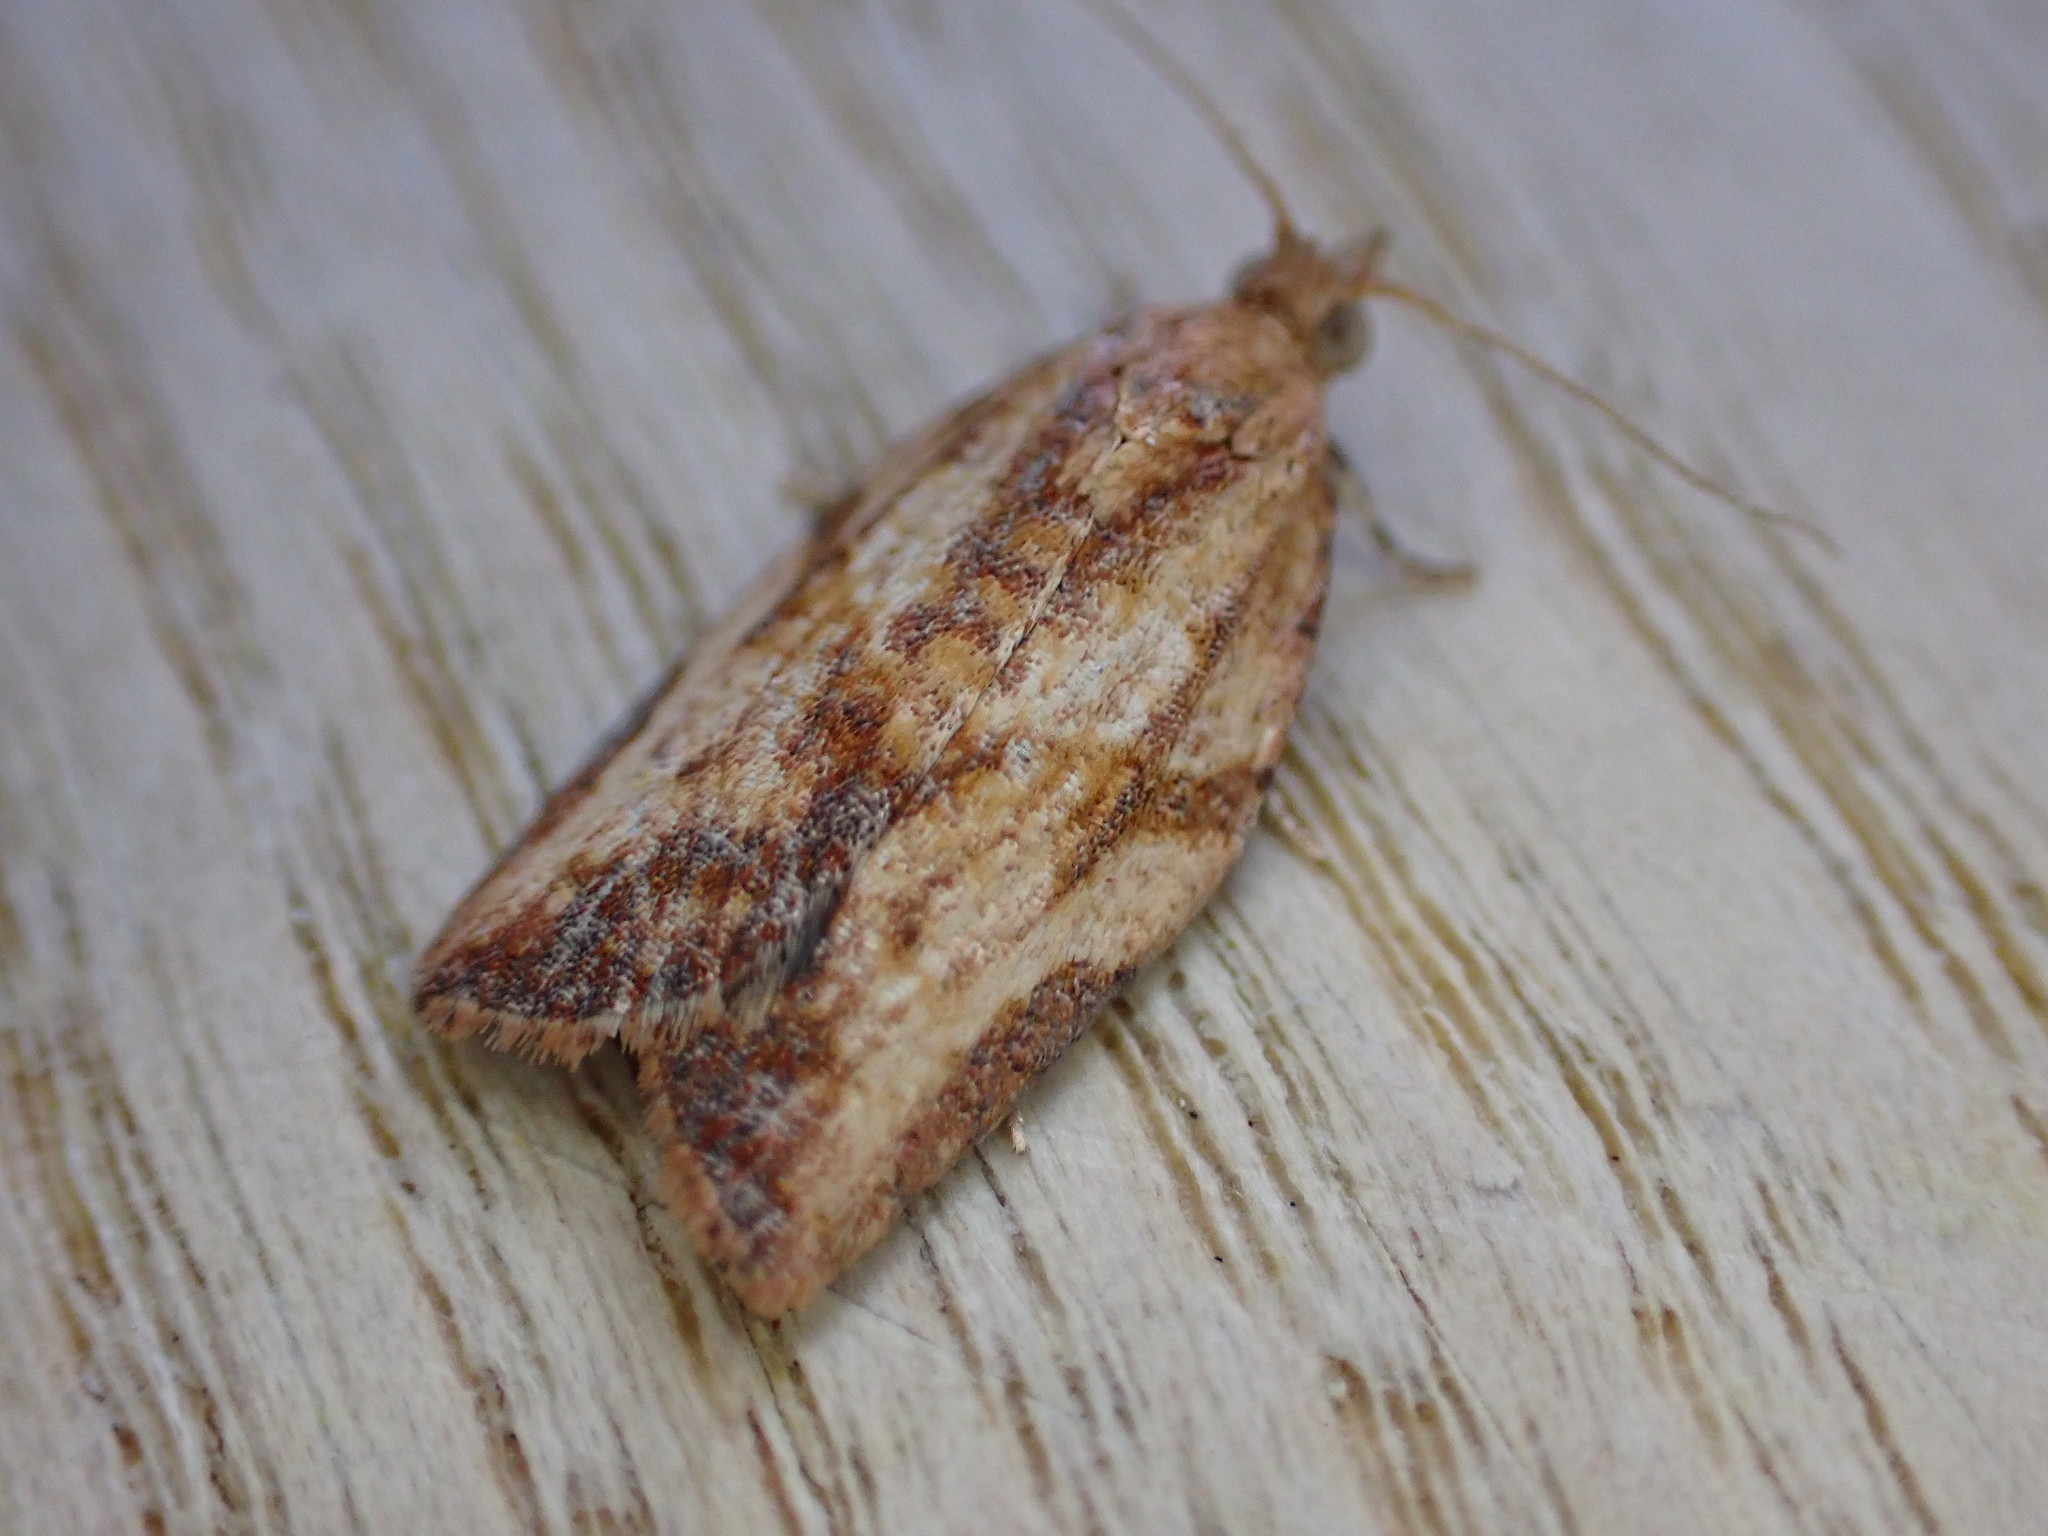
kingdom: Animalia
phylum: Arthropoda
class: Insecta
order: Lepidoptera
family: Tortricidae
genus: Epiphyas
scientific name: Epiphyas postvittana
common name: Light brown apple moth
